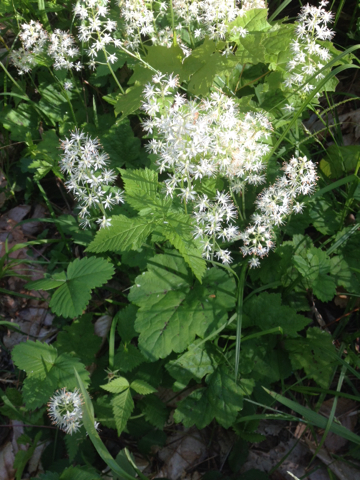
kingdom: Plantae
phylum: Tracheophyta
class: Magnoliopsida
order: Saxifragales
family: Saxifragaceae
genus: Tiarella
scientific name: Tiarella stolonifera
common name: Stoloniferous foamflower
